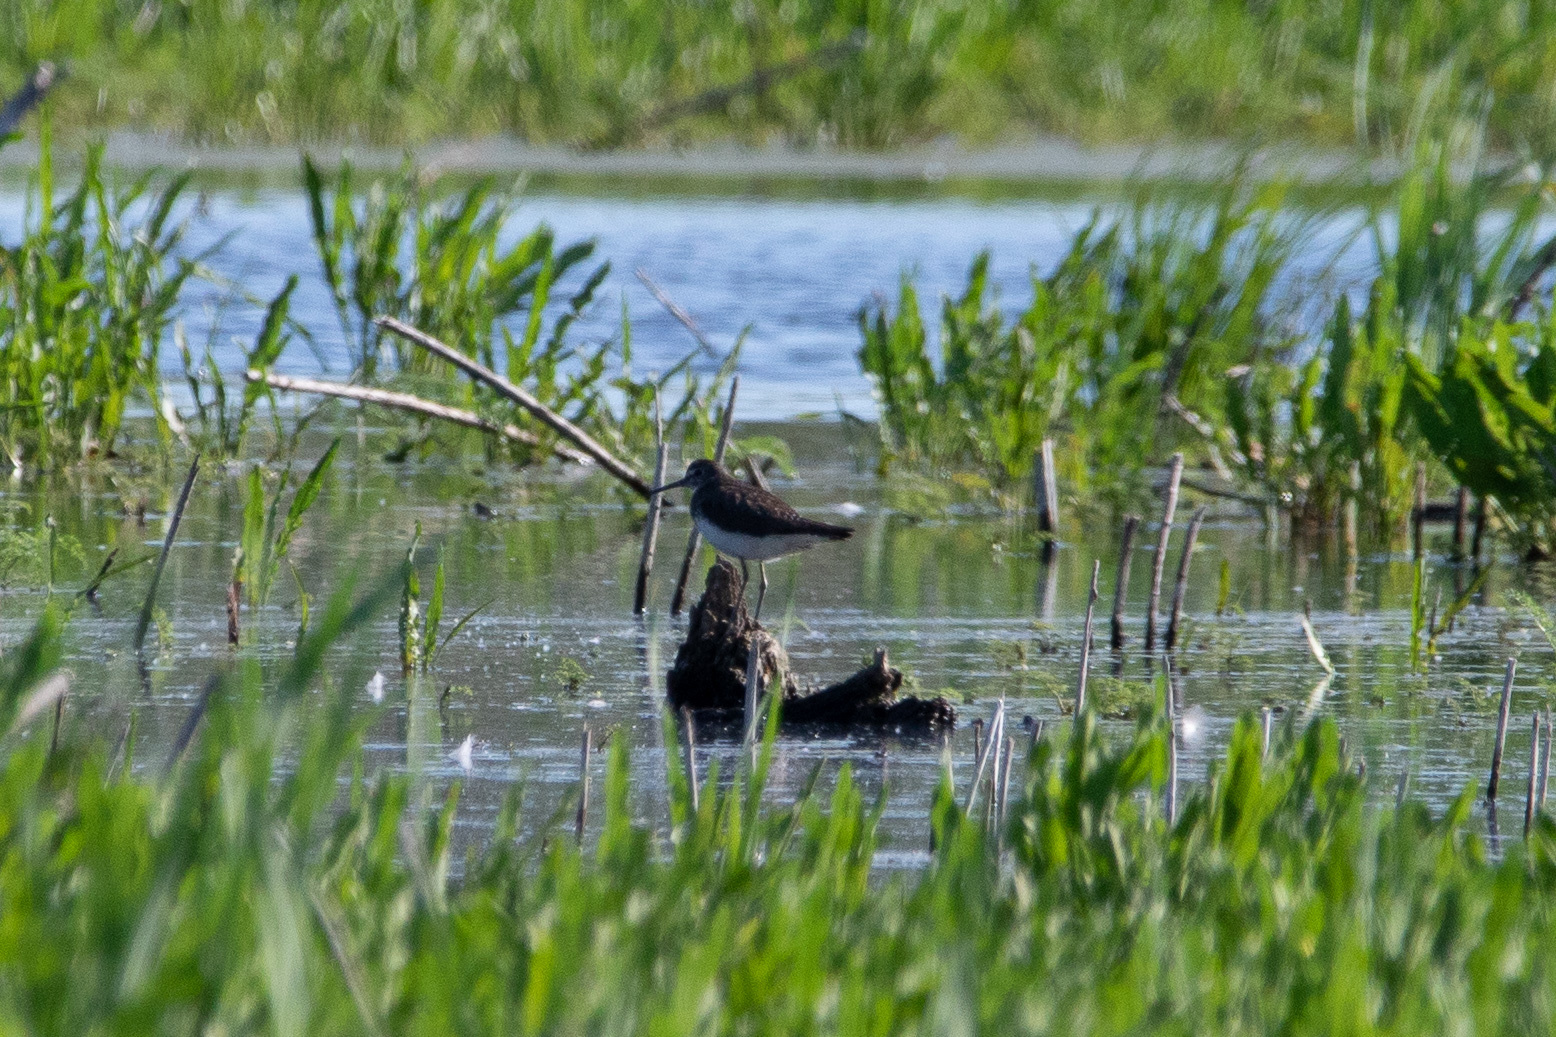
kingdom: Animalia
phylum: Chordata
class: Aves
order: Charadriiformes
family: Scolopacidae
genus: Tringa
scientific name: Tringa ochropus
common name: Green sandpiper
